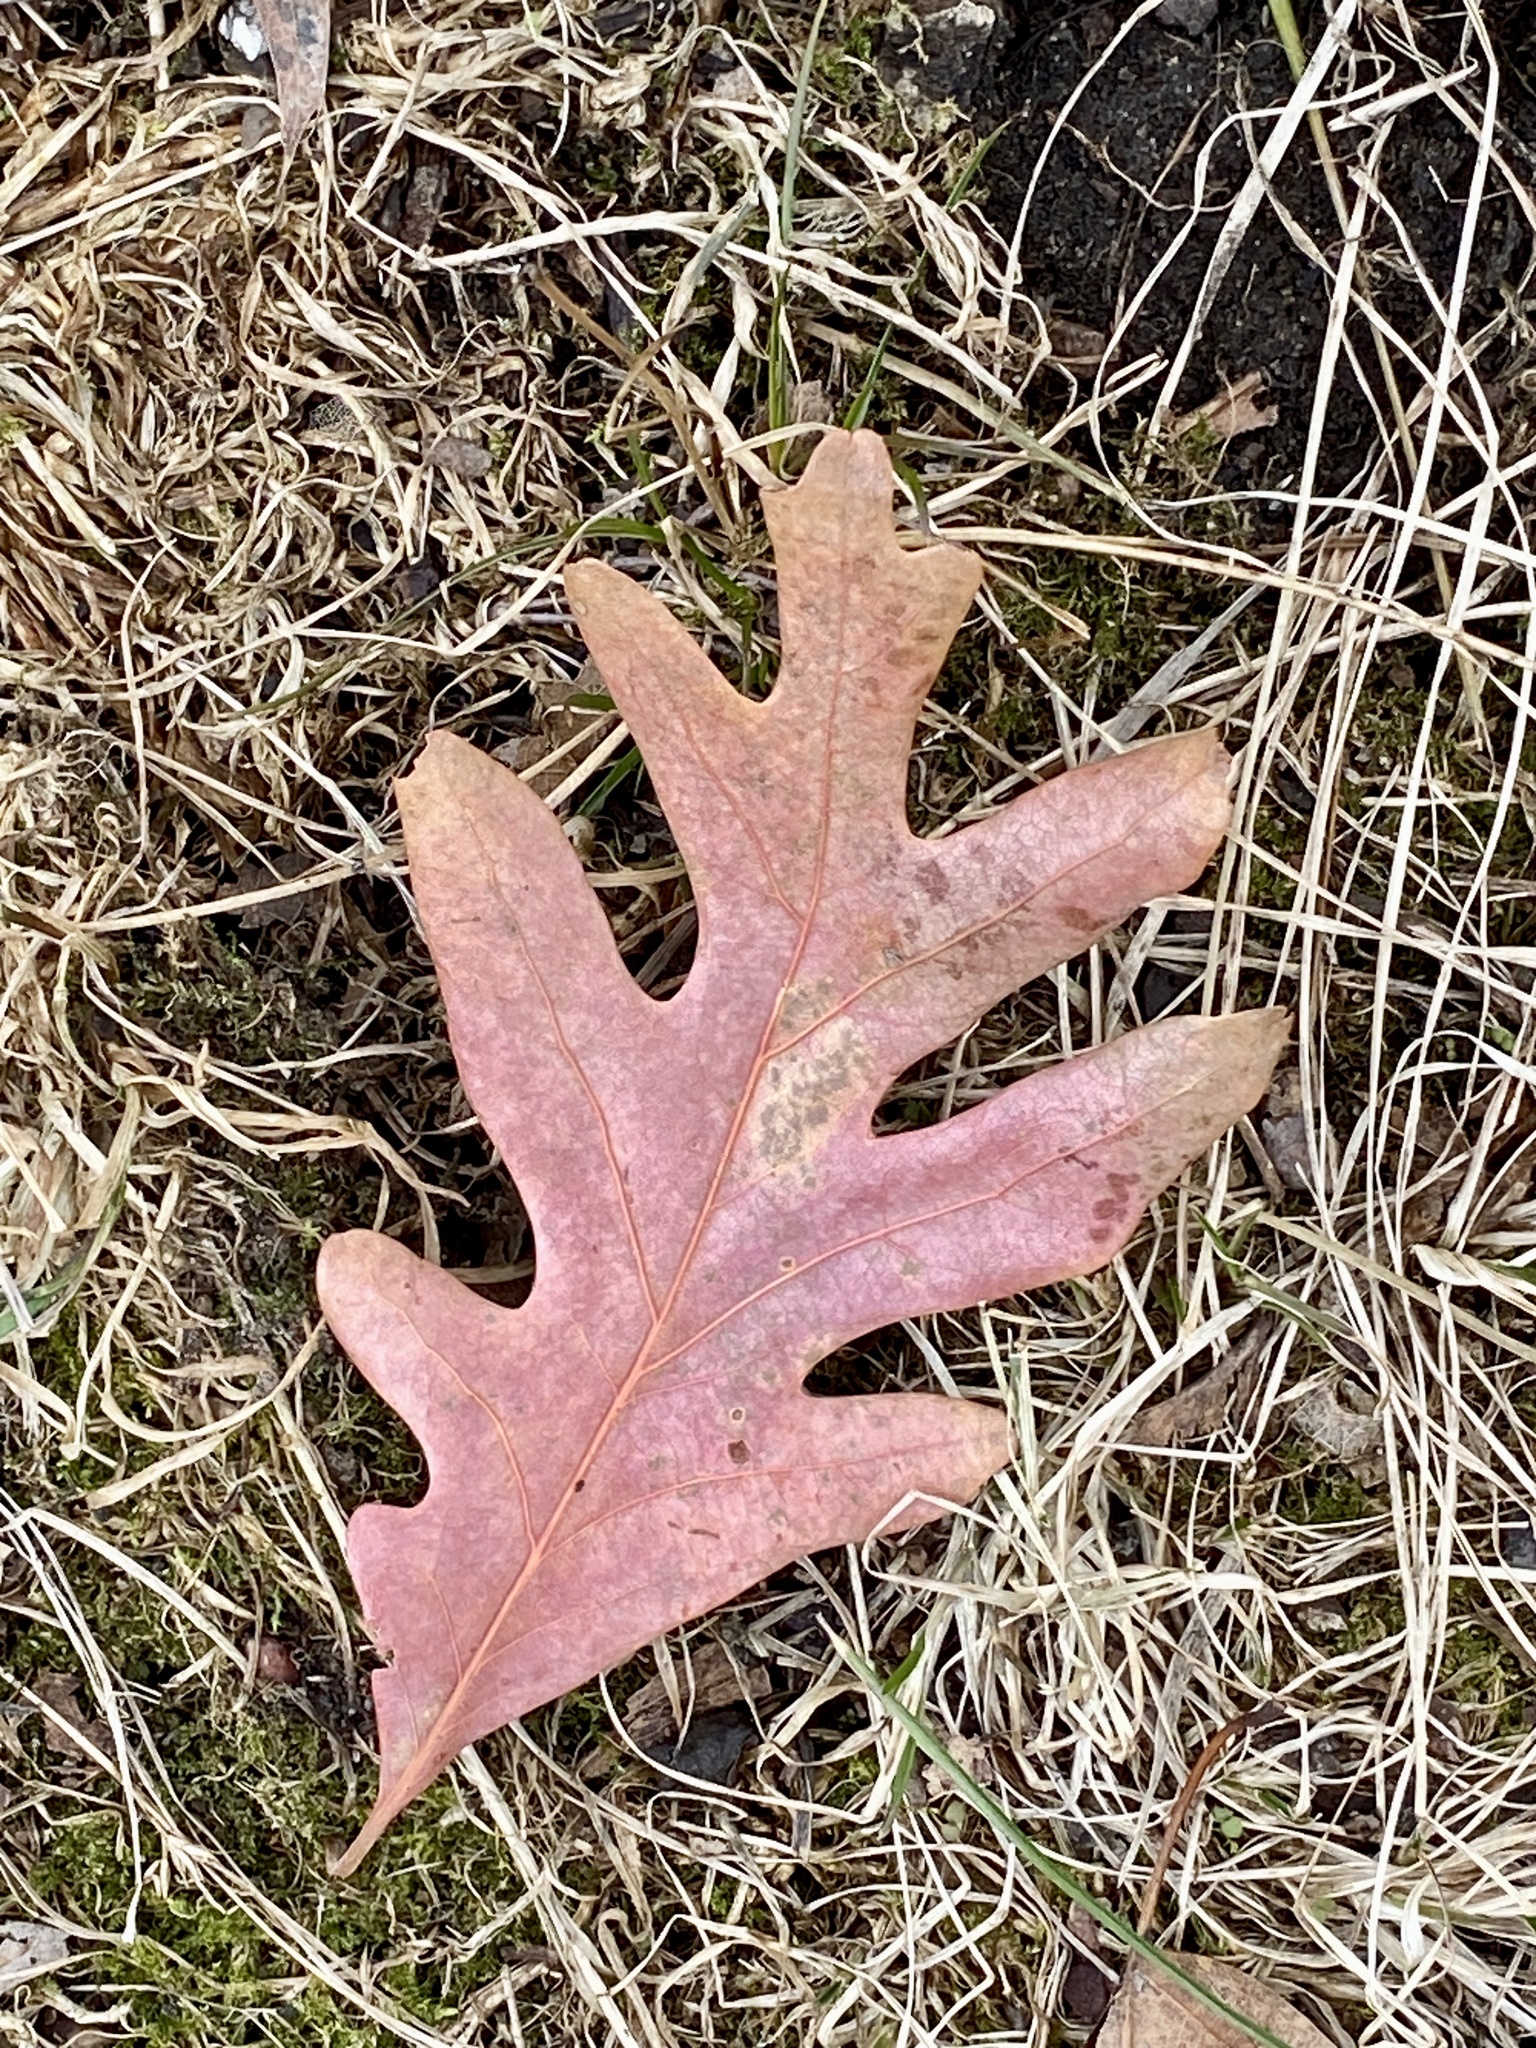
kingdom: Plantae
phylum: Tracheophyta
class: Magnoliopsida
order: Fagales
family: Fagaceae
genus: Quercus
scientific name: Quercus alba
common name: White oak
